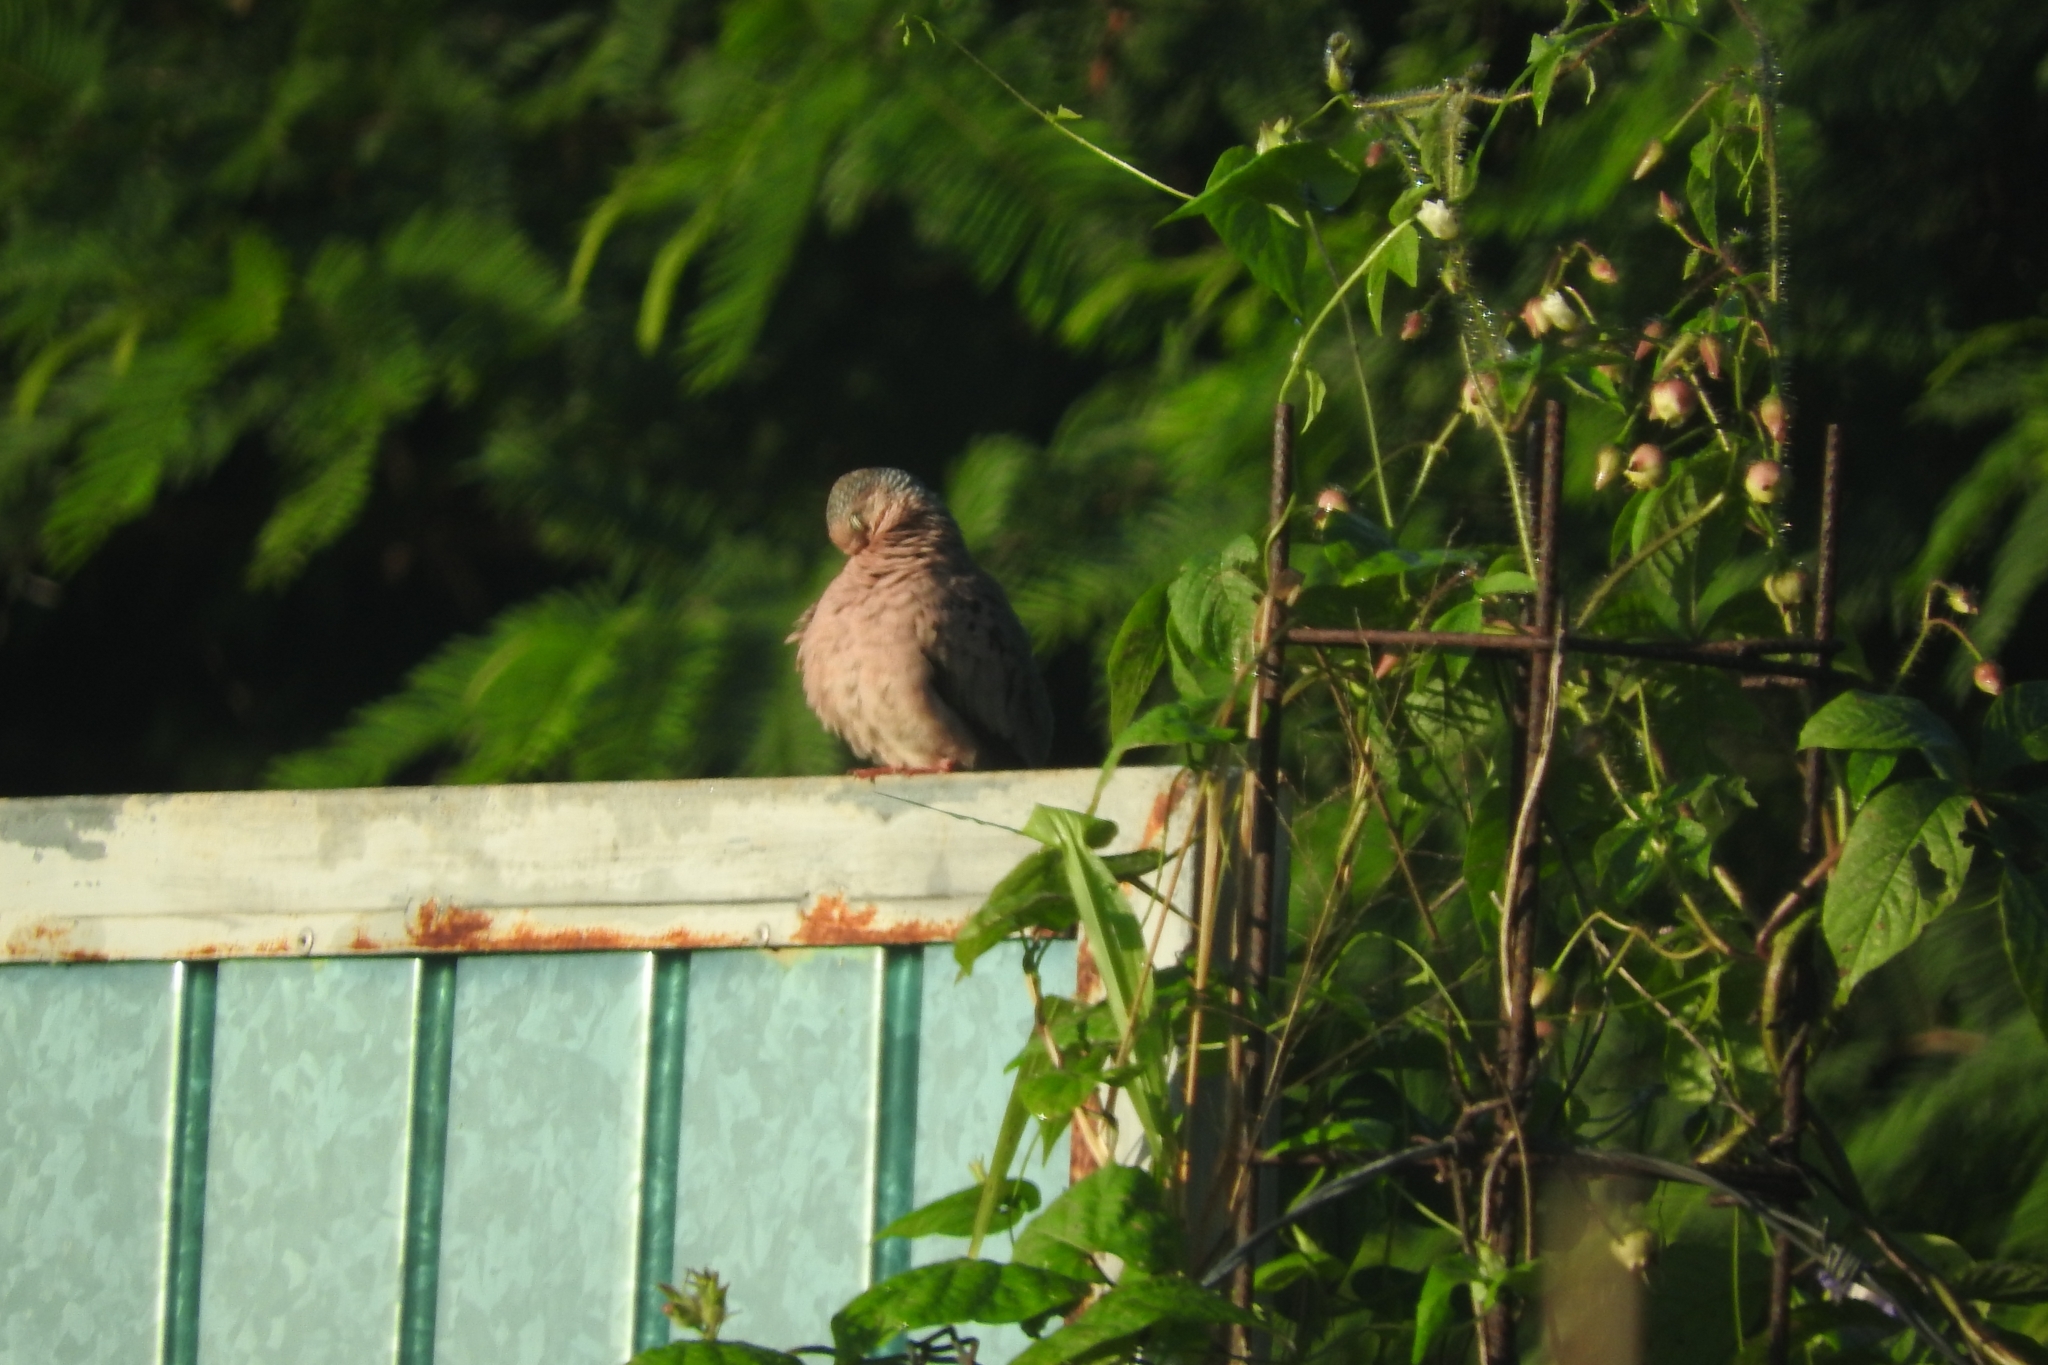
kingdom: Animalia
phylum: Chordata
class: Aves
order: Columbiformes
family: Columbidae
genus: Columbina
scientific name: Columbina passerina
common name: Common ground-dove
